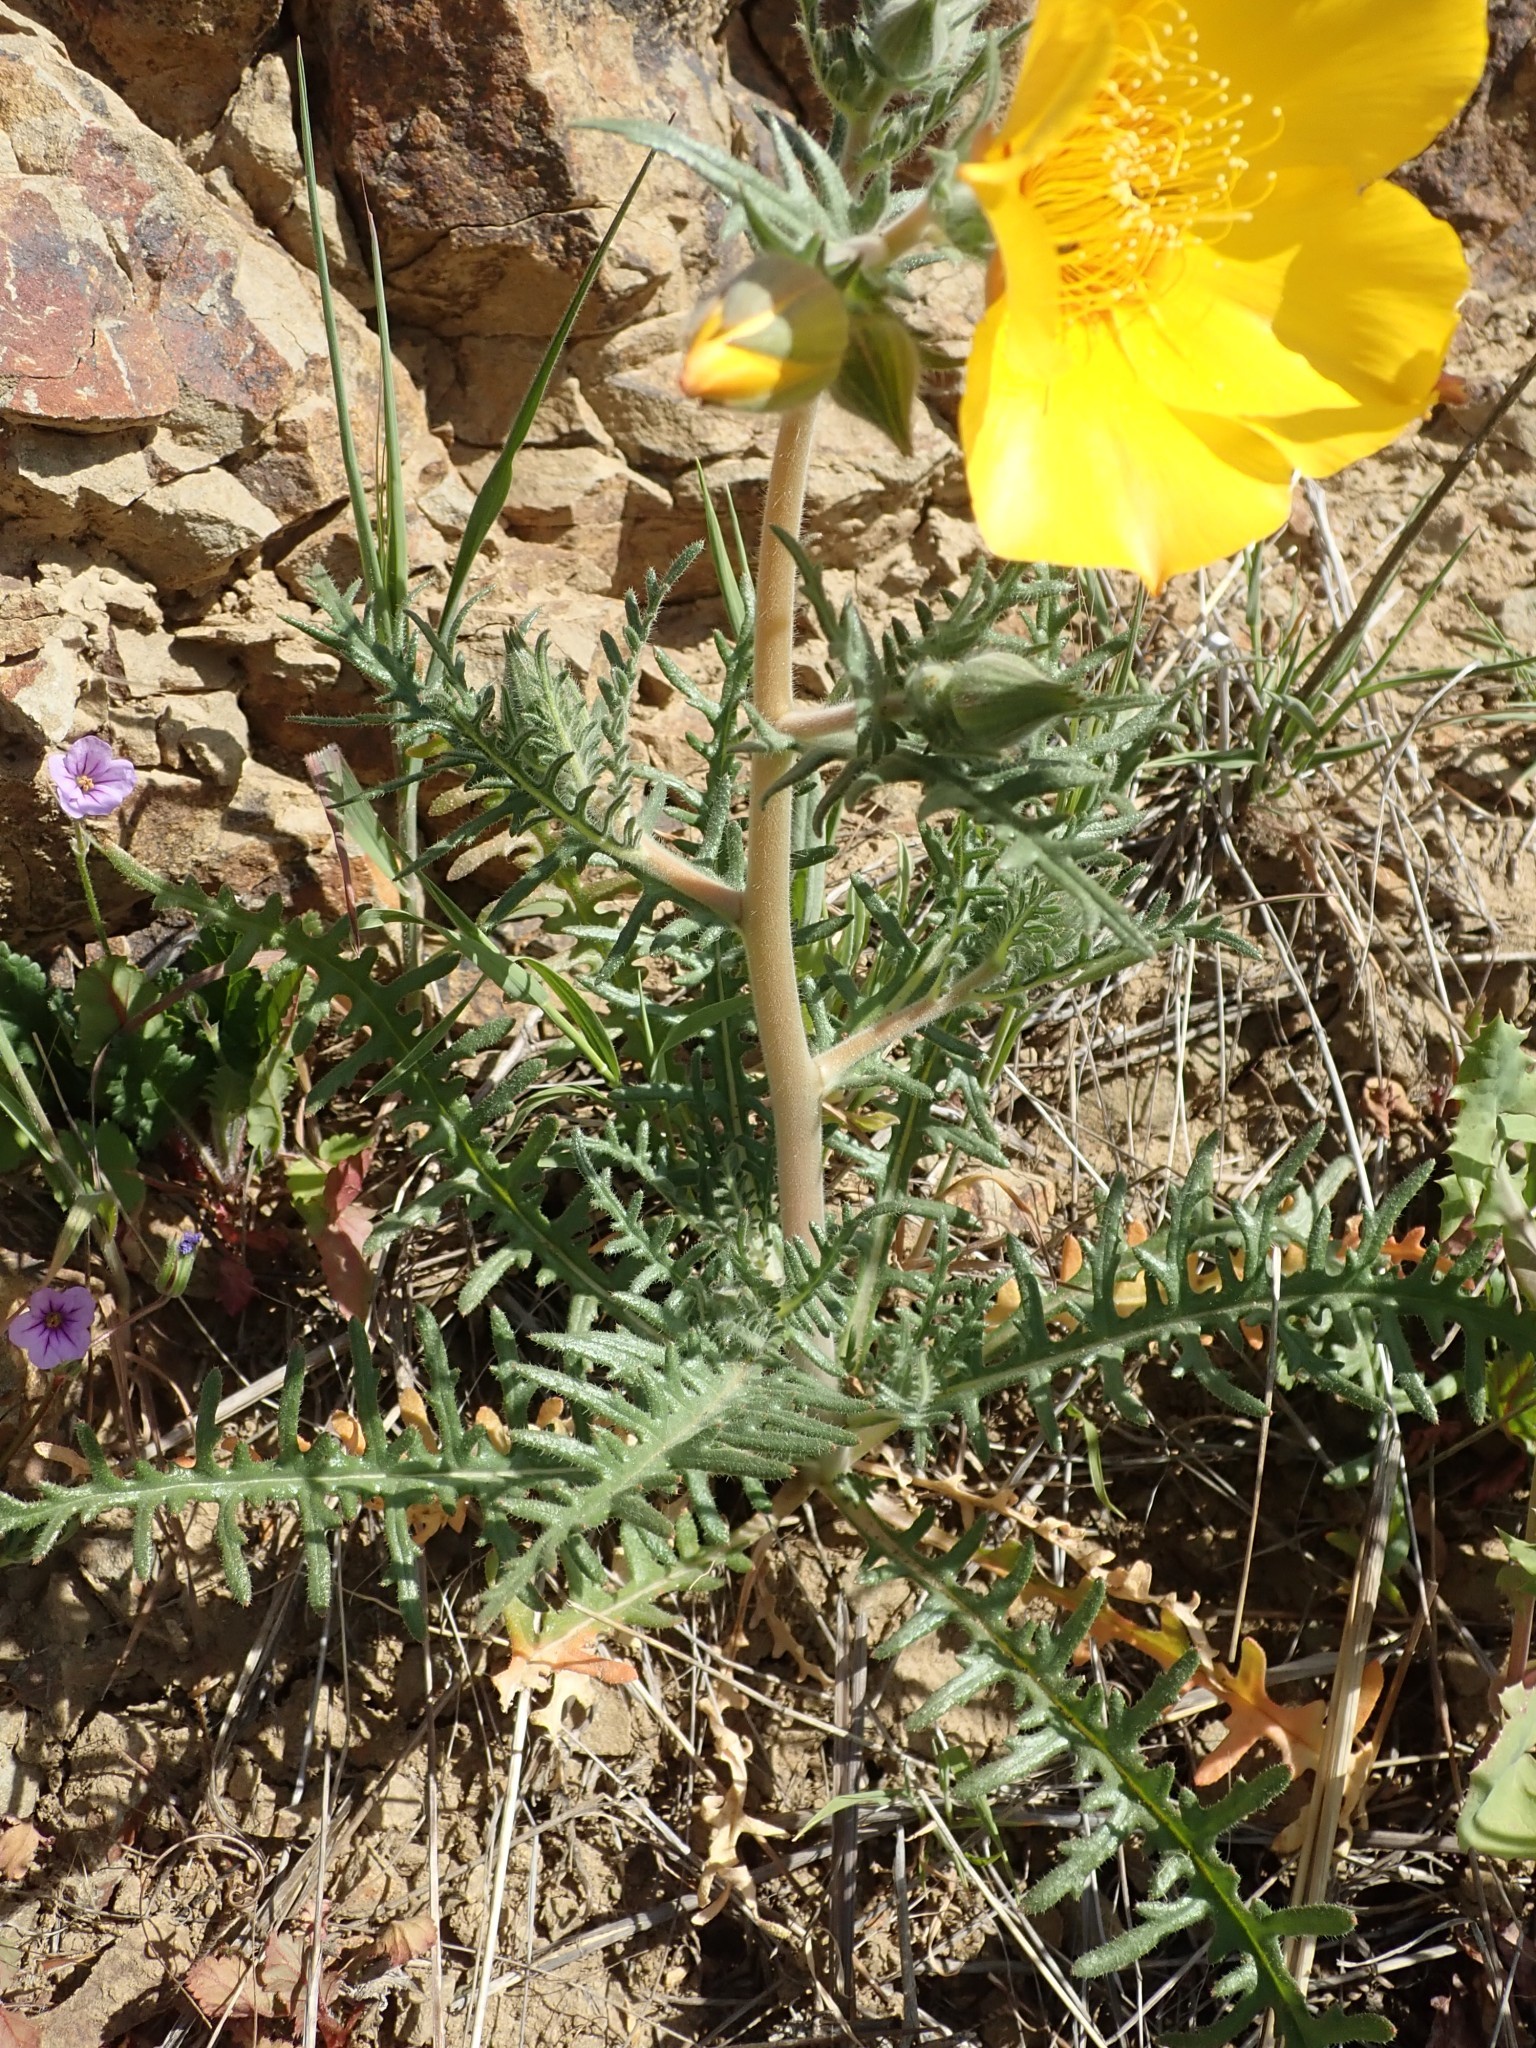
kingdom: Plantae
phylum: Tracheophyta
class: Magnoliopsida
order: Cornales
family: Loasaceae
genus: Mentzelia
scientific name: Mentzelia lindleyi
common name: Golden bartonia
